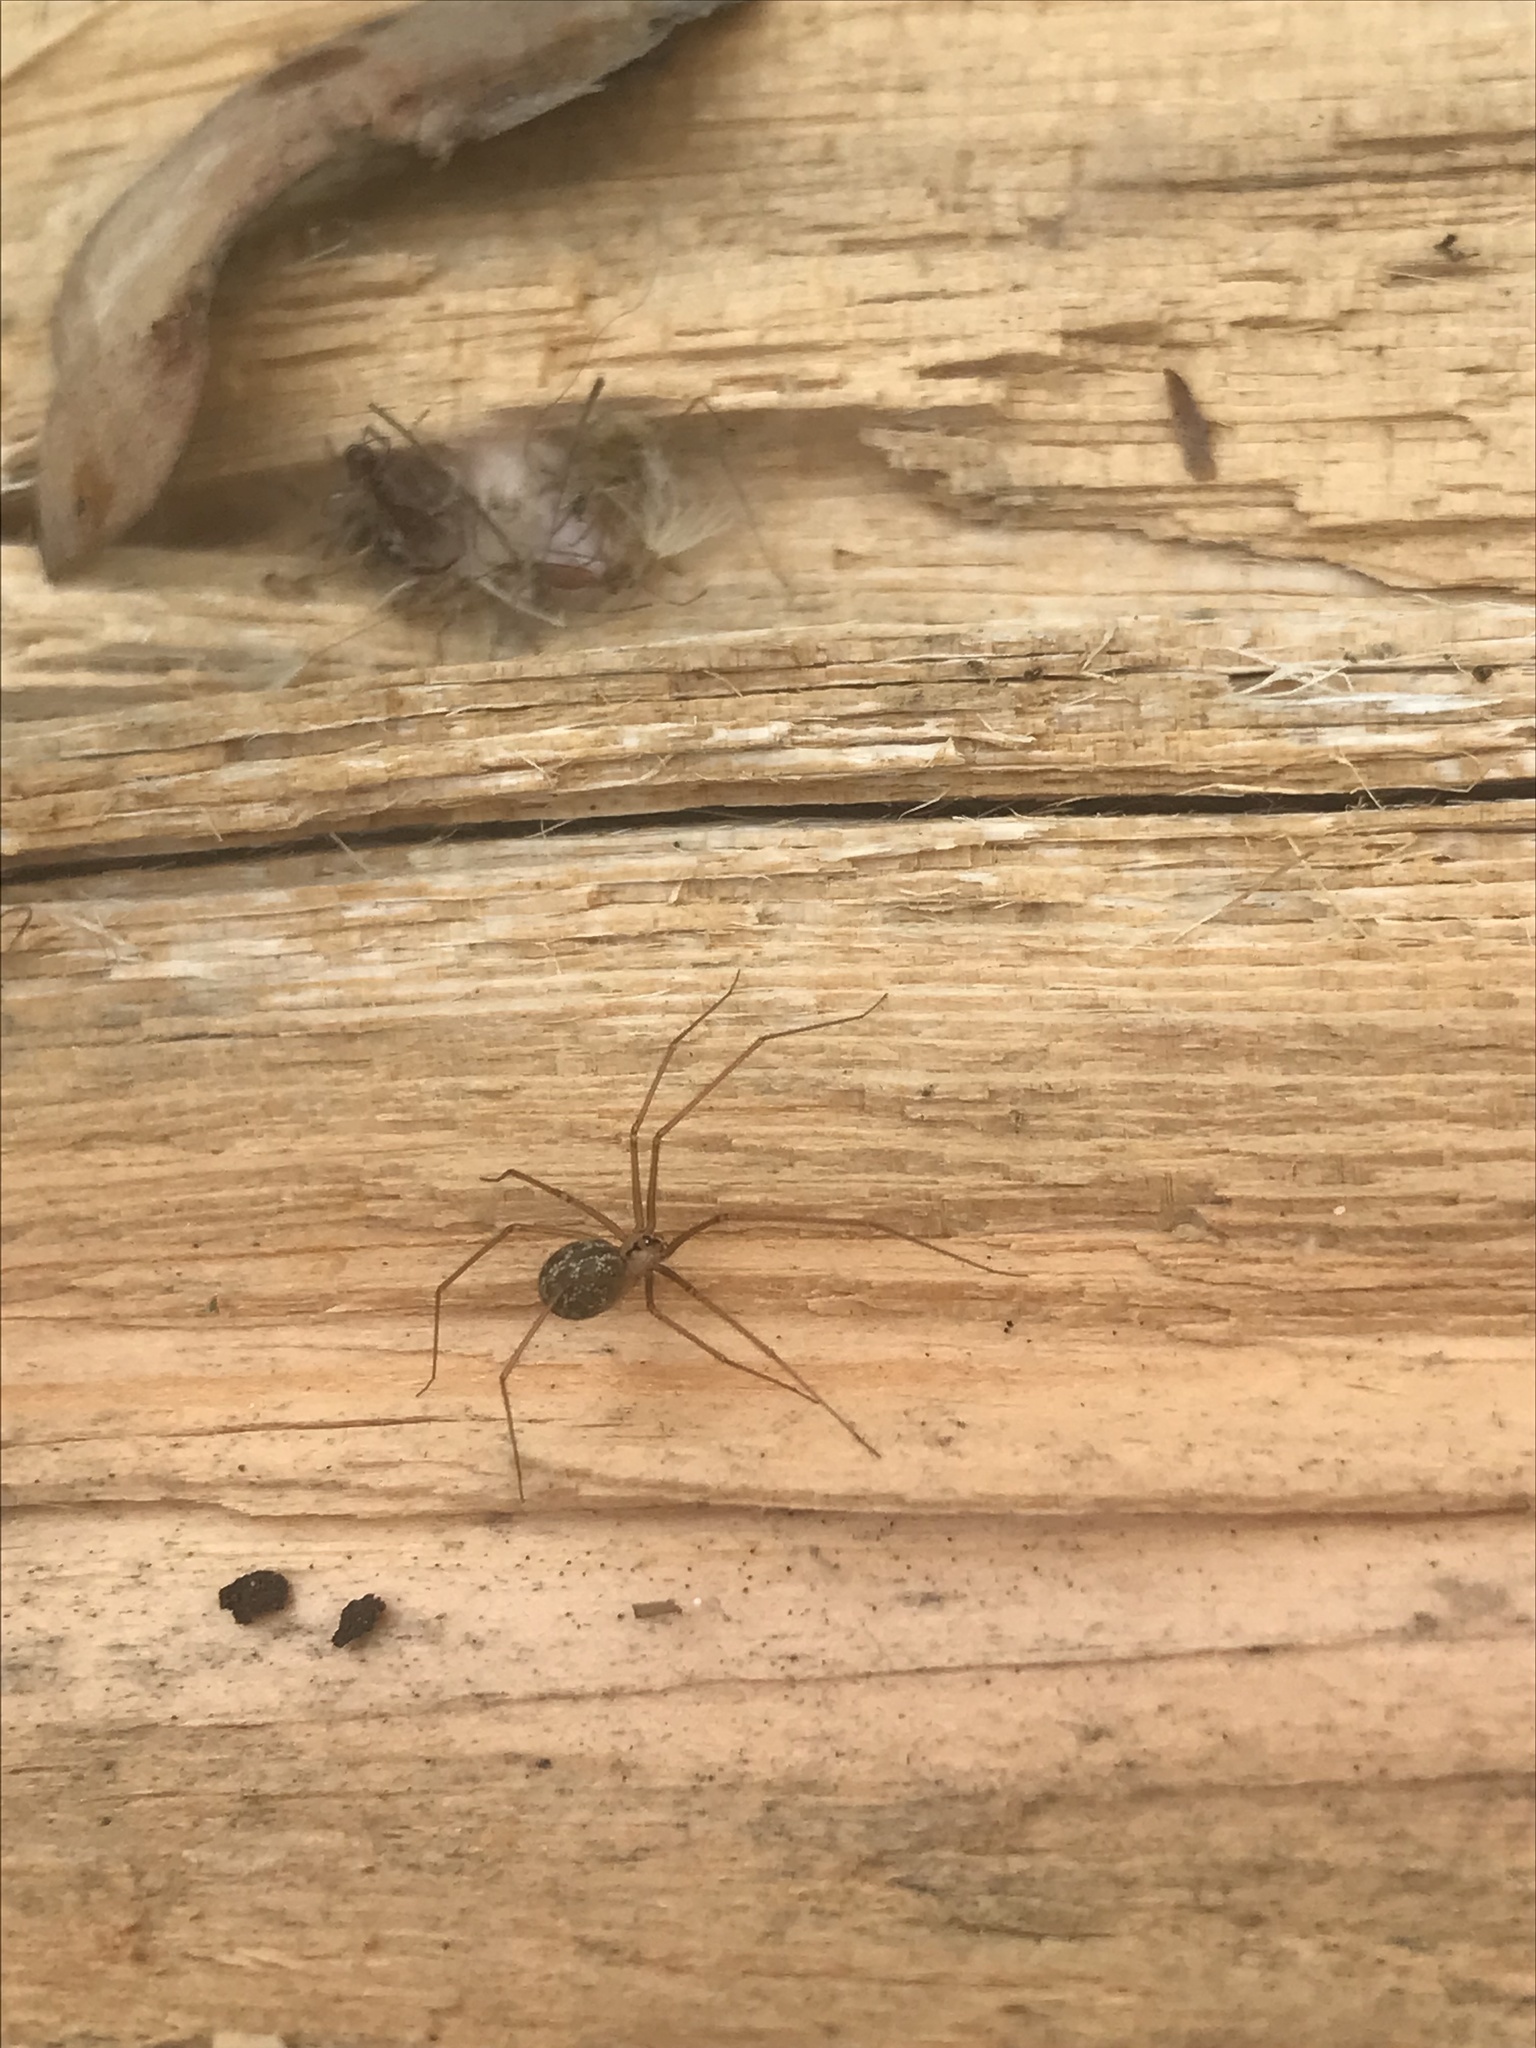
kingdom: Animalia
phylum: Arthropoda
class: Arachnida
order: Araneae
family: Pholcidae
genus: Psilochorus
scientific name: Psilochorus hesperus
